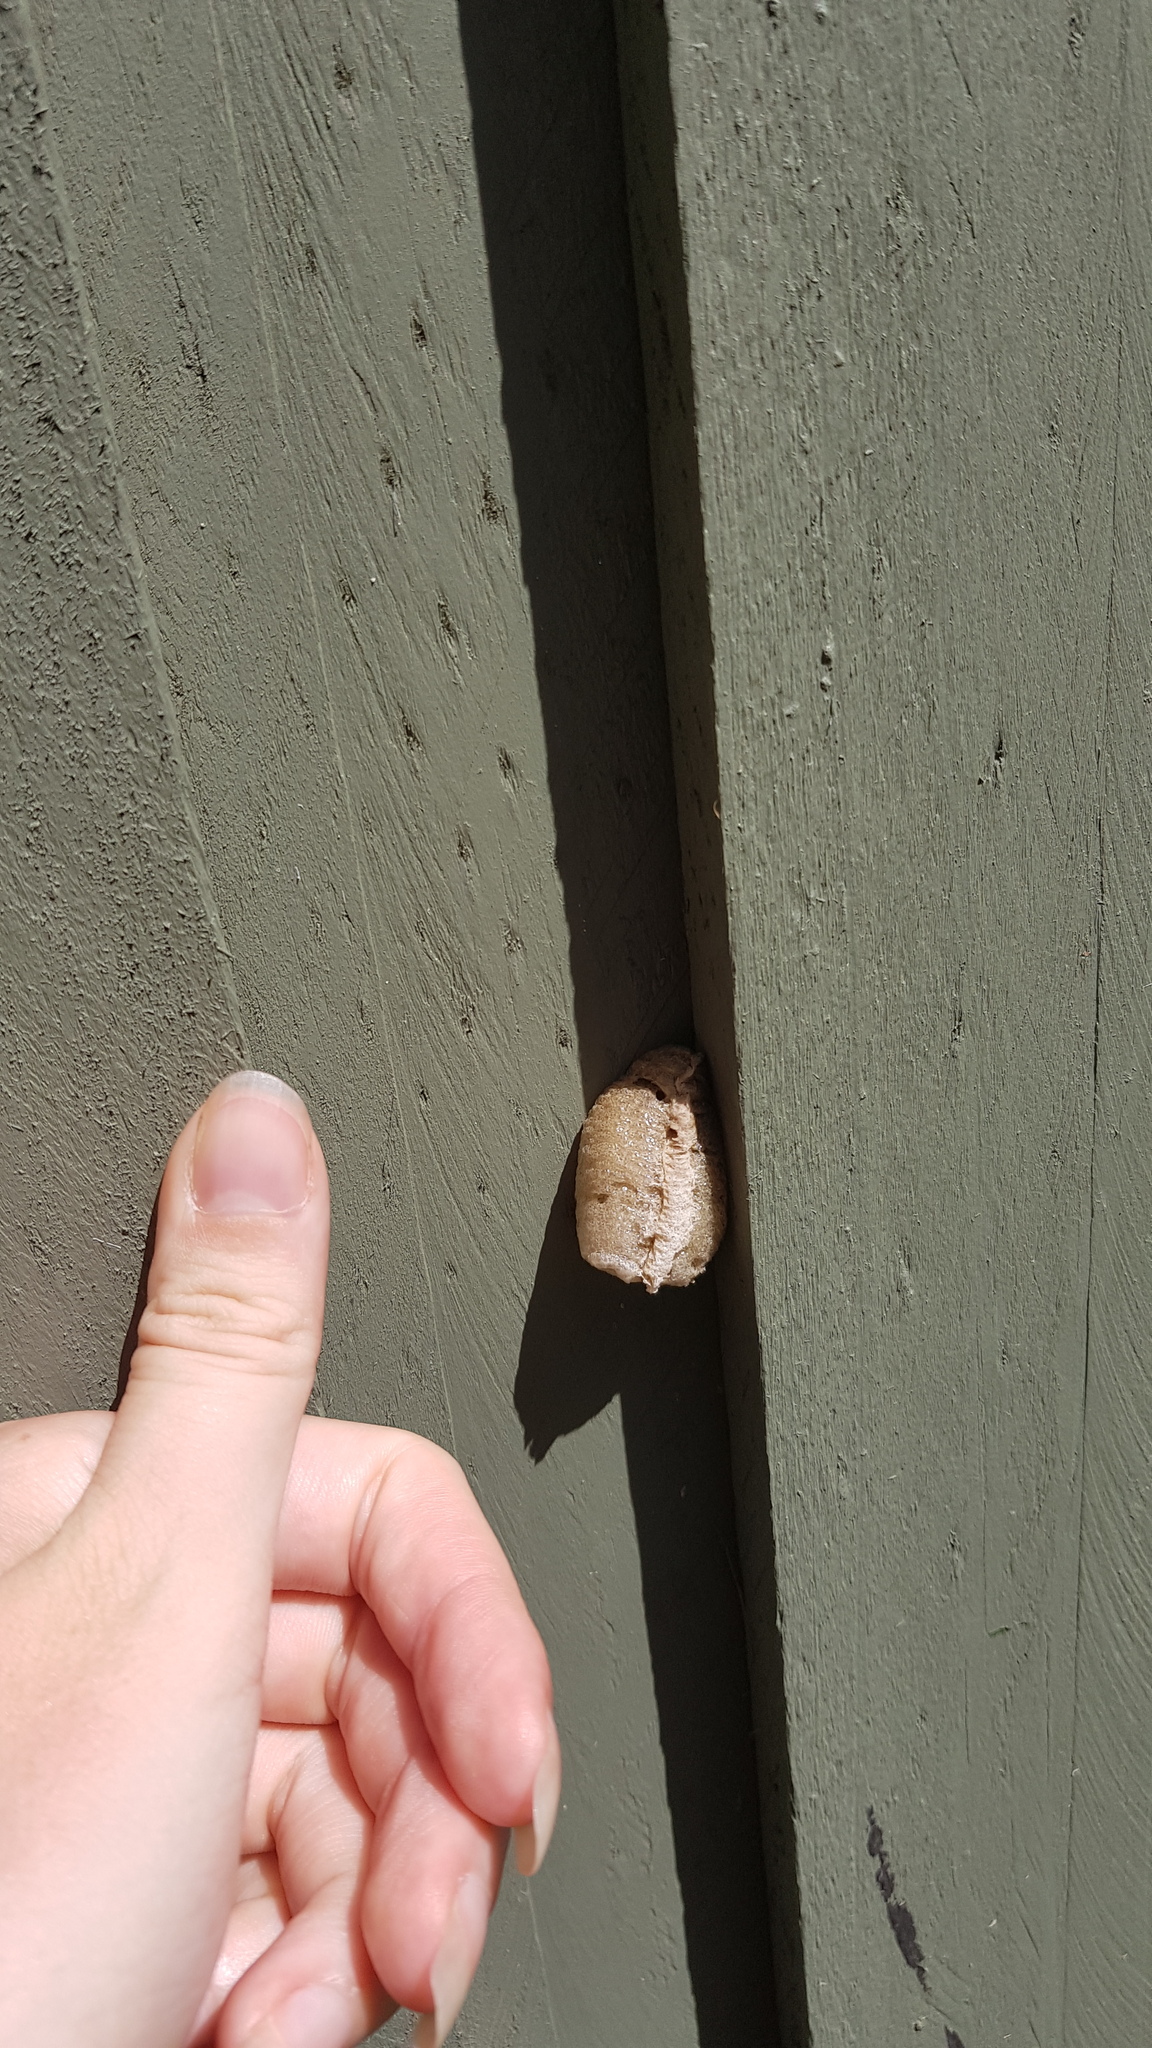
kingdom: Animalia
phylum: Arthropoda
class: Insecta
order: Mantodea
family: Mantidae
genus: Archimantis
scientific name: Archimantis latistyla
